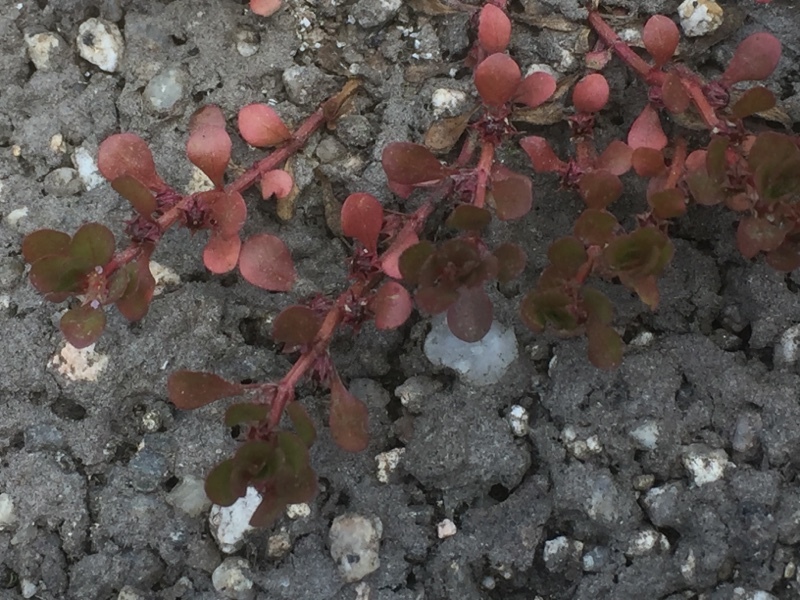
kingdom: Plantae
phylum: Tracheophyta
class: Magnoliopsida
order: Myrtales
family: Lythraceae
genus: Lythrum
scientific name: Lythrum portula
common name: Water purslane
